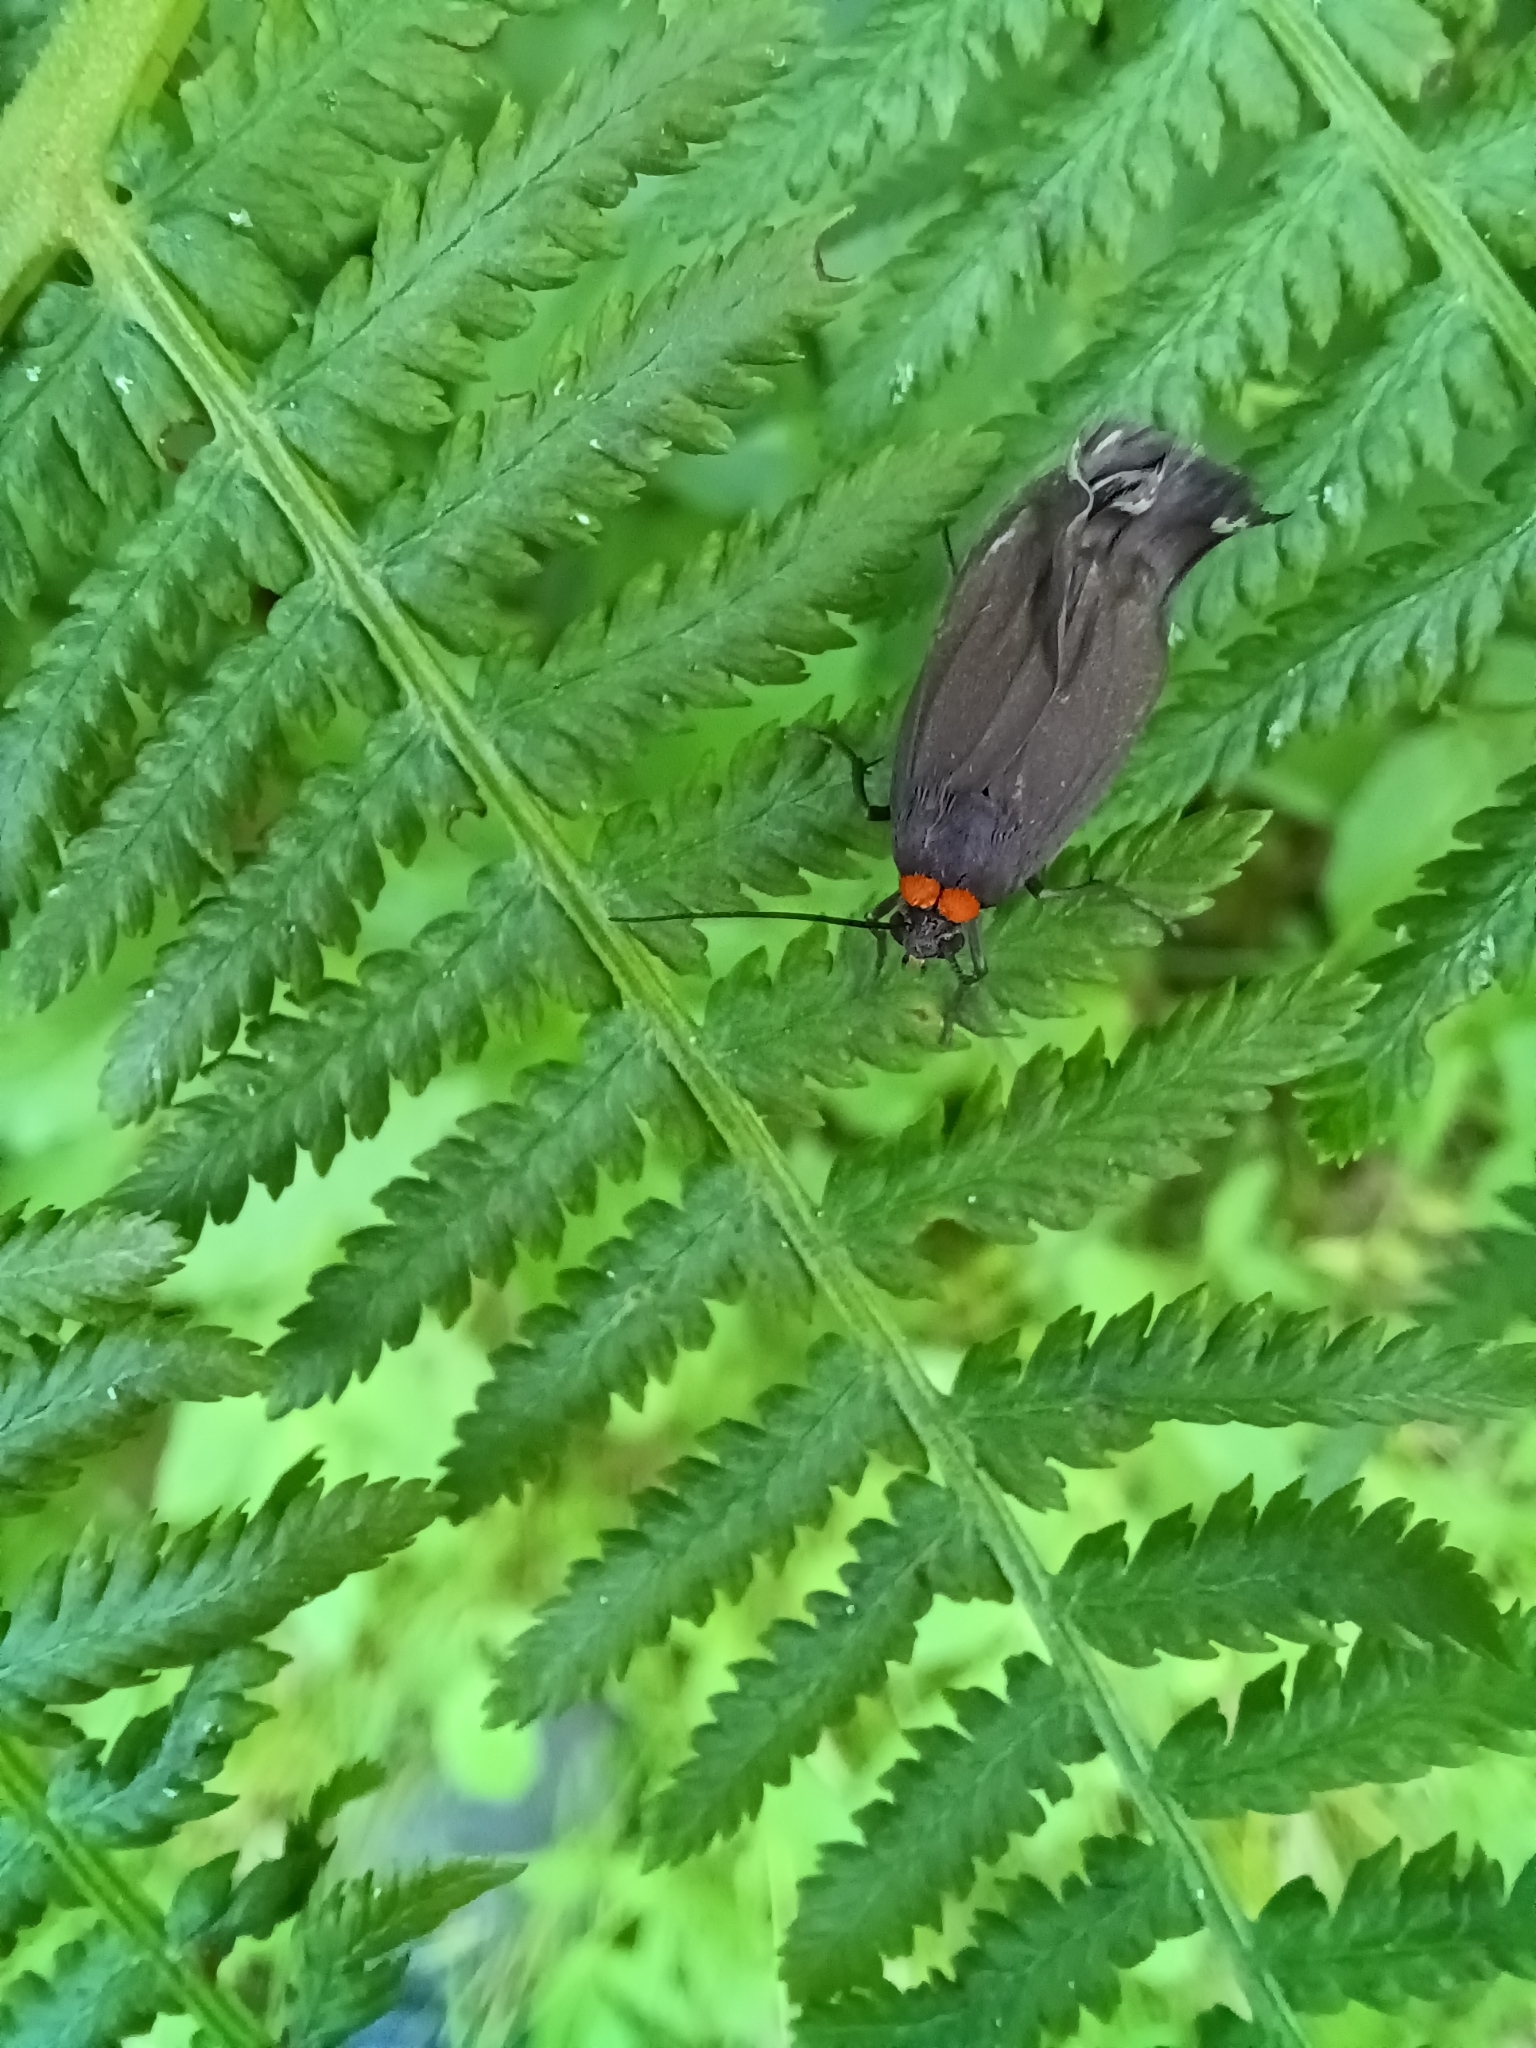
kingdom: Animalia
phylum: Arthropoda
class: Insecta
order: Lepidoptera
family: Erebidae
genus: Atolmis
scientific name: Atolmis rubricollis
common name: Red-necked footman
